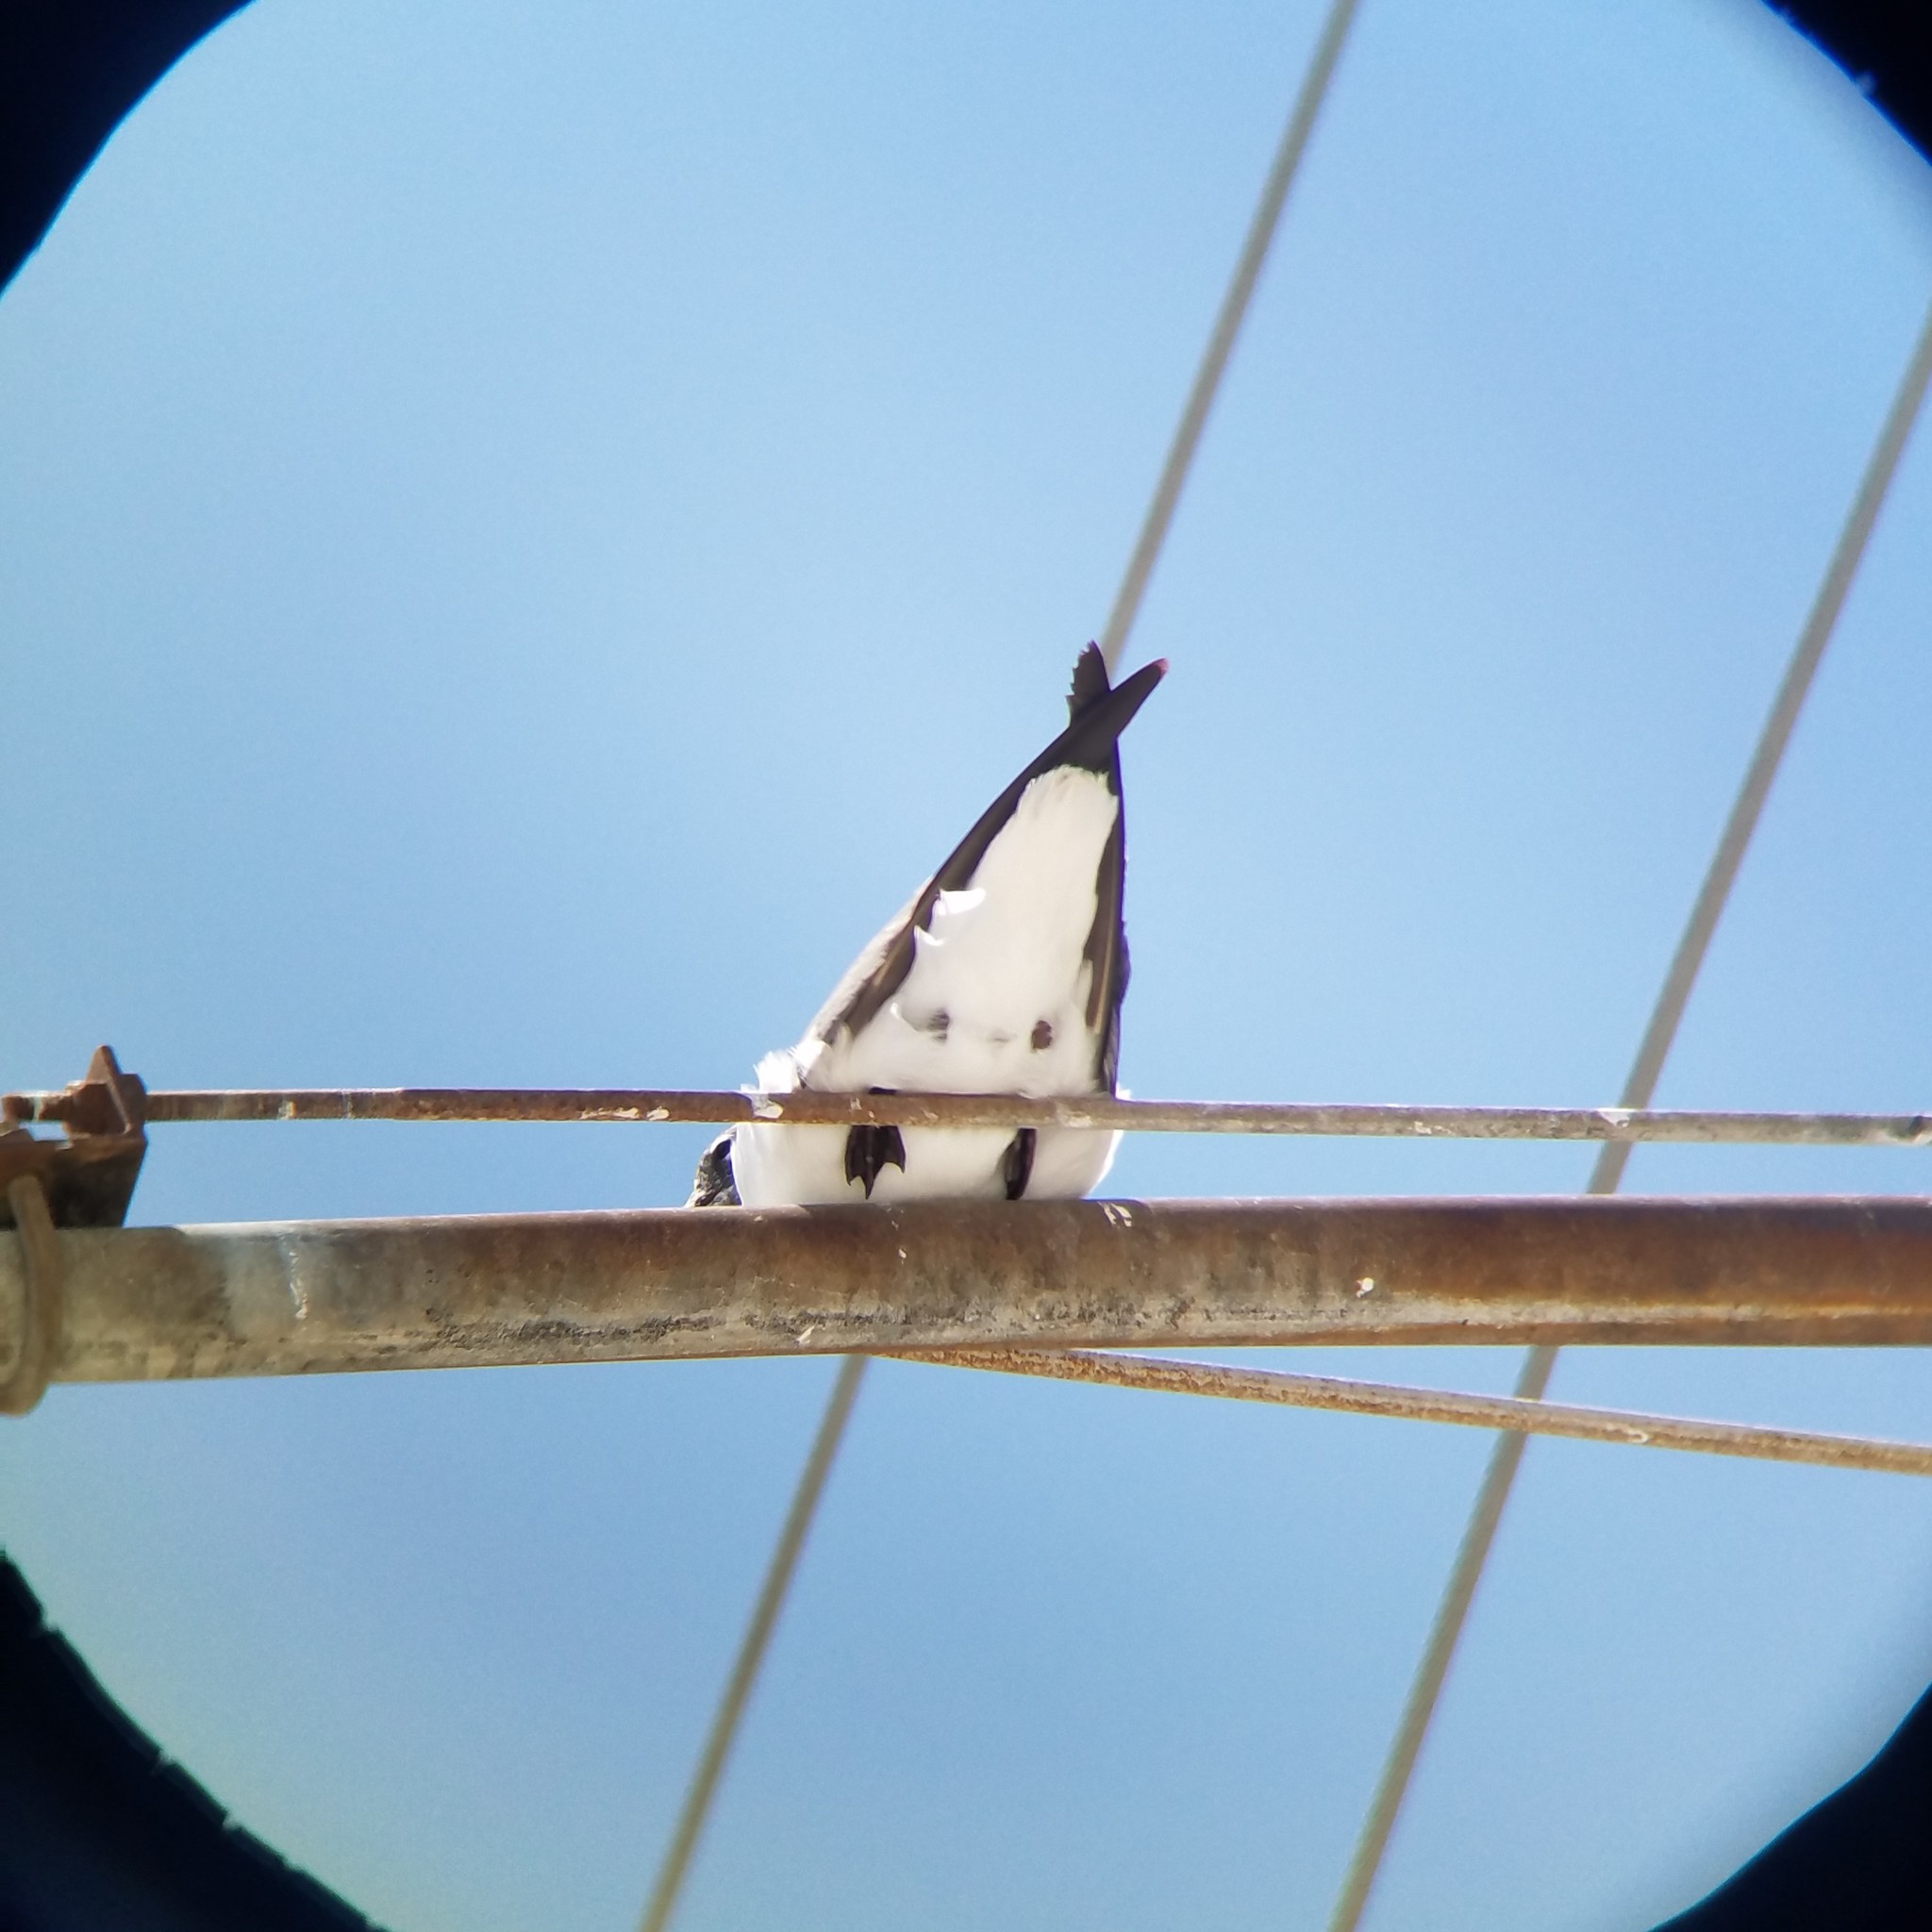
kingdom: Animalia
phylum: Chordata
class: Aves
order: Charadriiformes
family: Laridae
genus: Leucophaeus
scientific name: Leucophaeus atricilla
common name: Laughing gull
